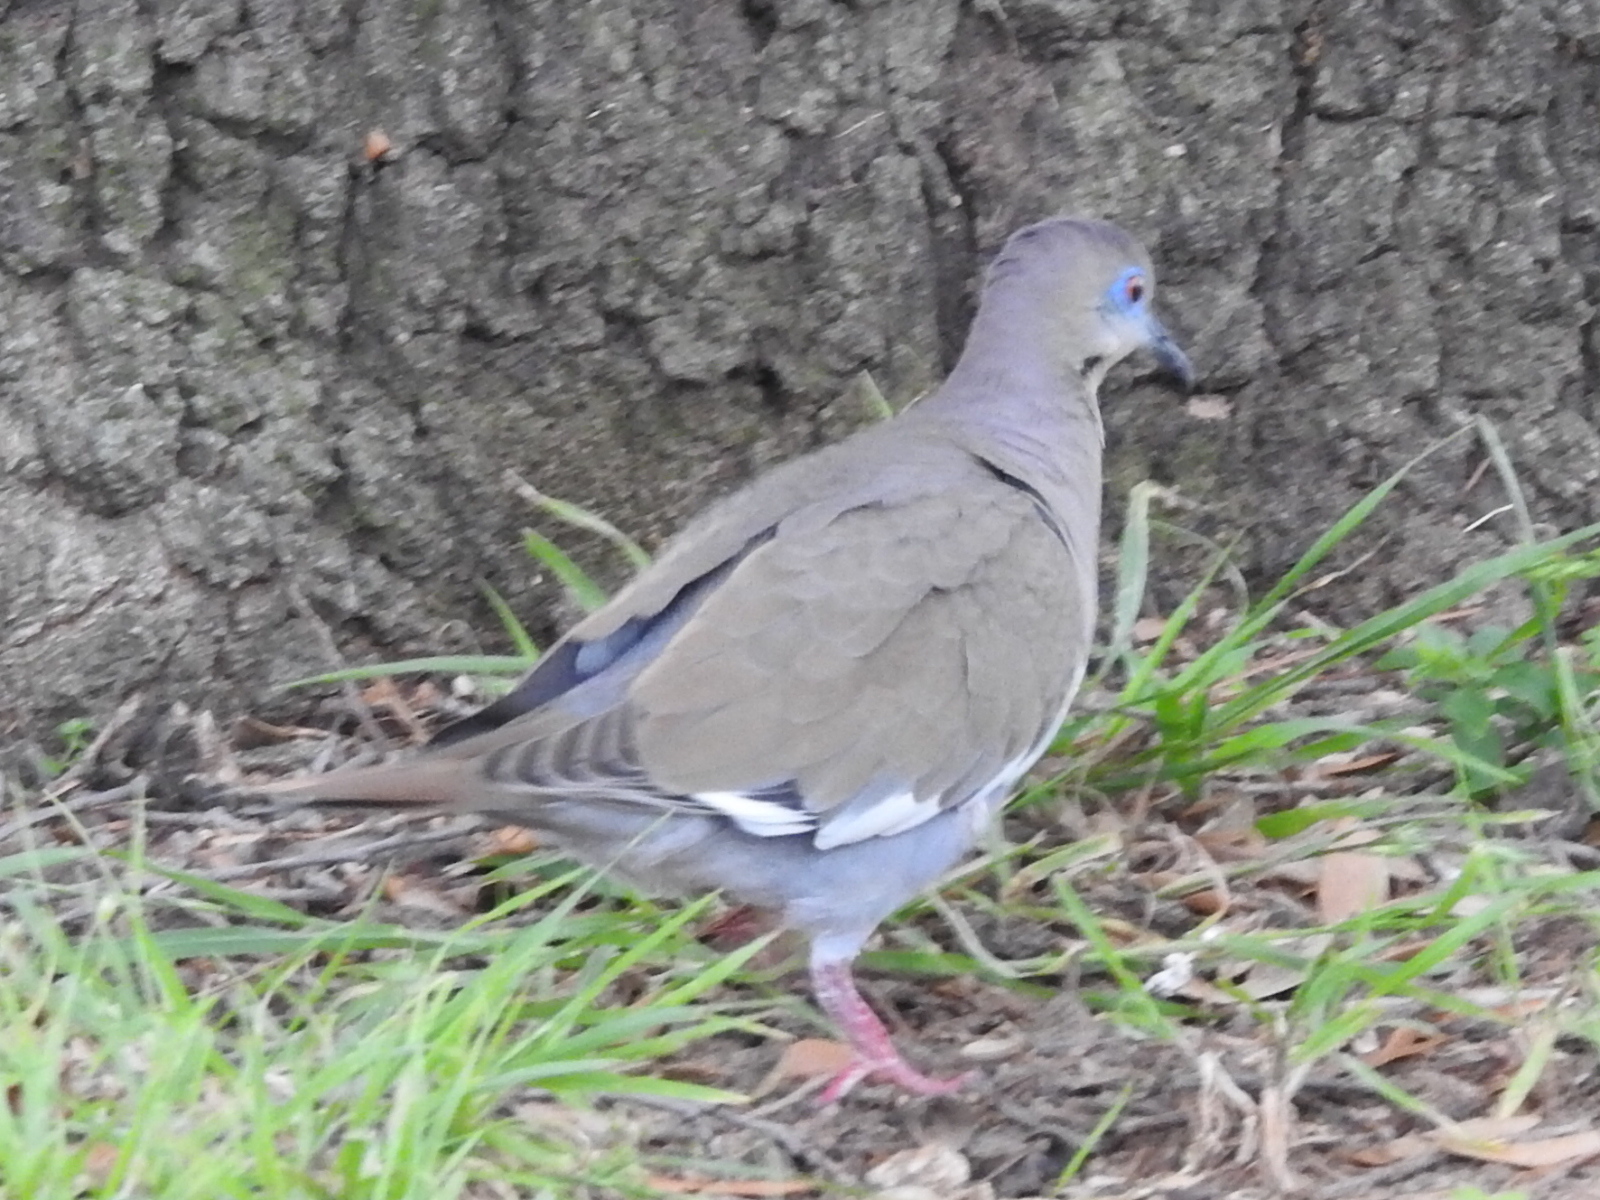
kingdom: Animalia
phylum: Chordata
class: Aves
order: Columbiformes
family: Columbidae
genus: Zenaida
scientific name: Zenaida asiatica
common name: White-winged dove
